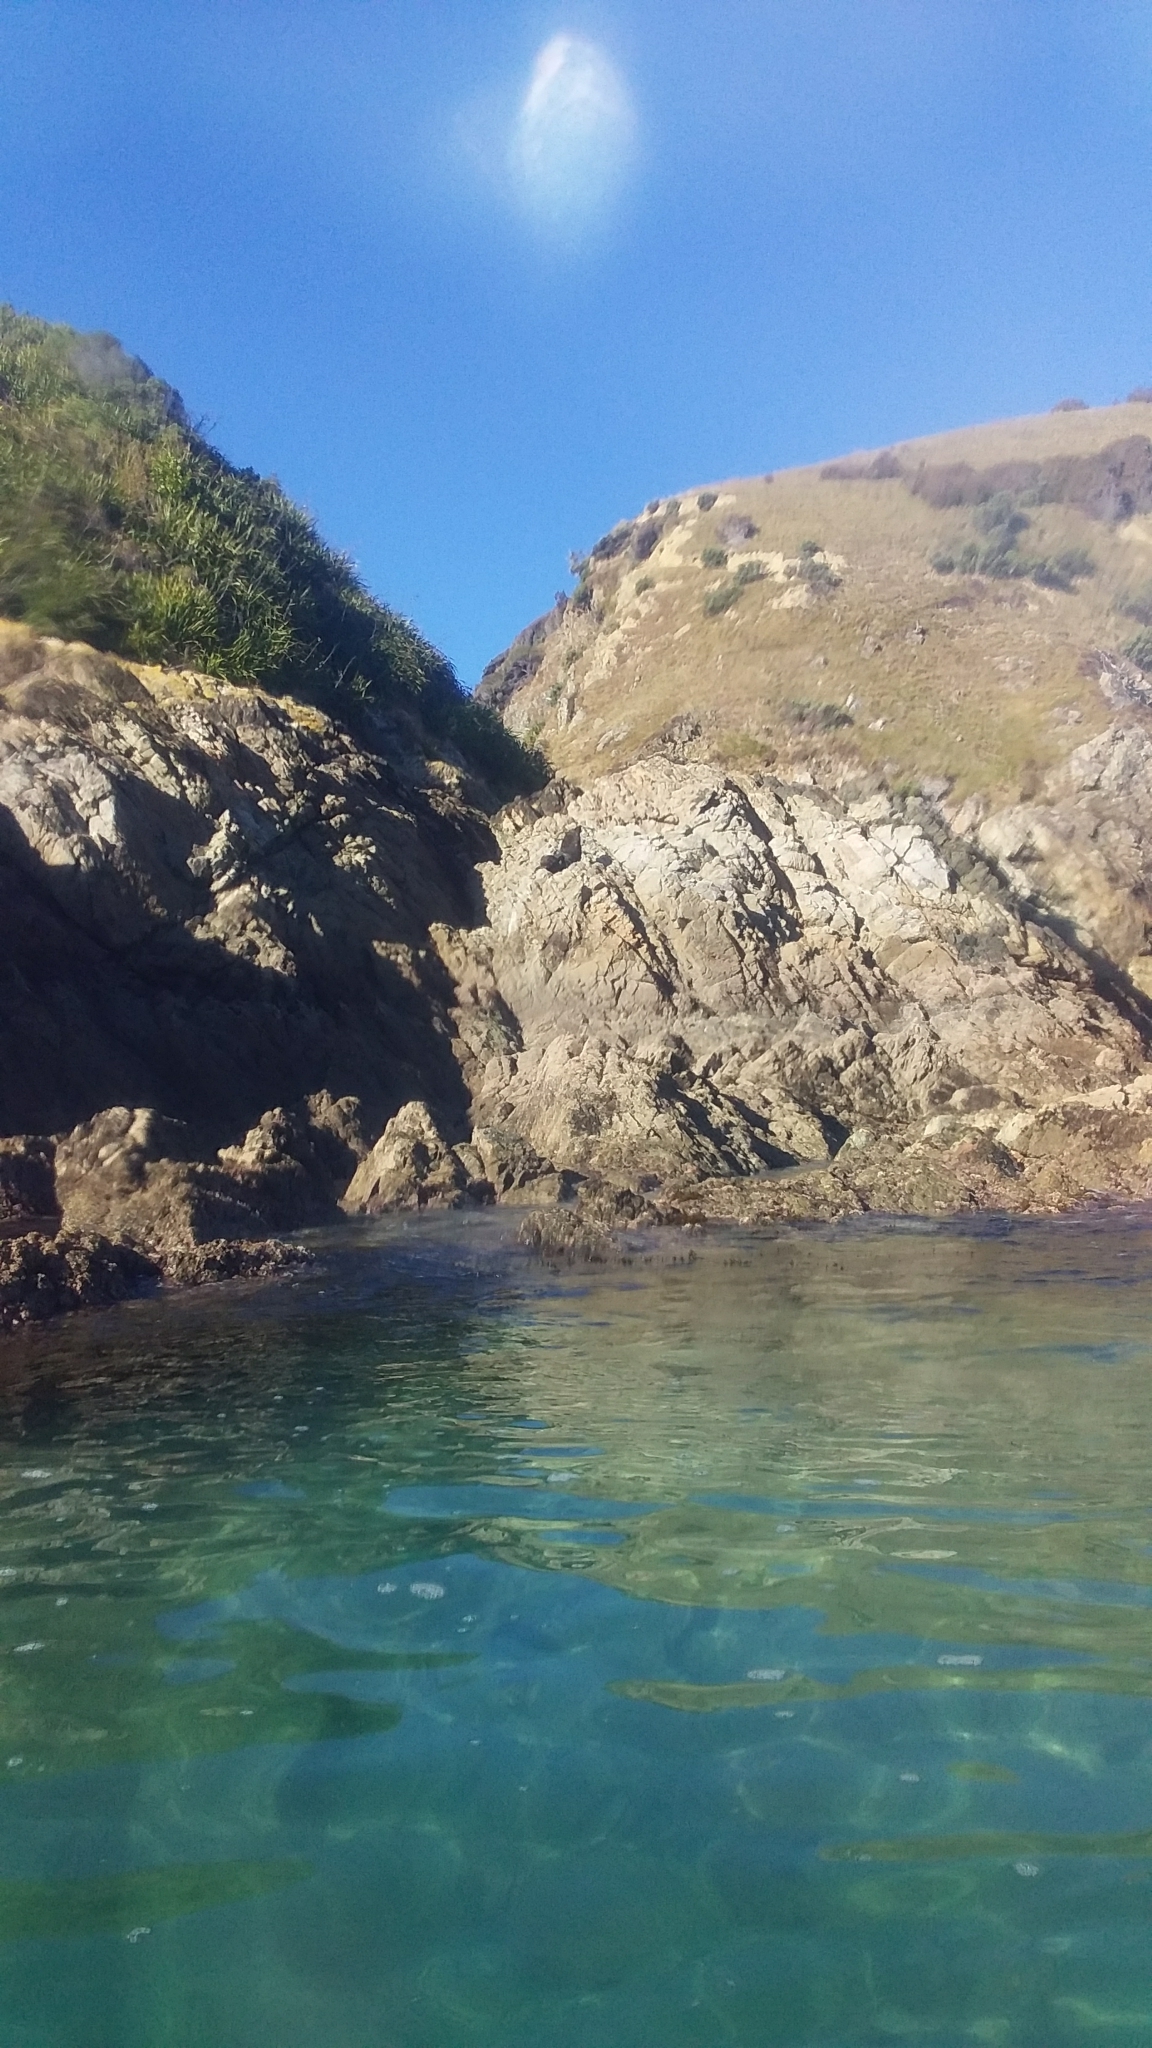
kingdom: Animalia
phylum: Chordata
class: Mammalia
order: Carnivora
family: Otariidae
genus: Arctocephalus
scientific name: Arctocephalus forsteri
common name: New zealand fur seal
